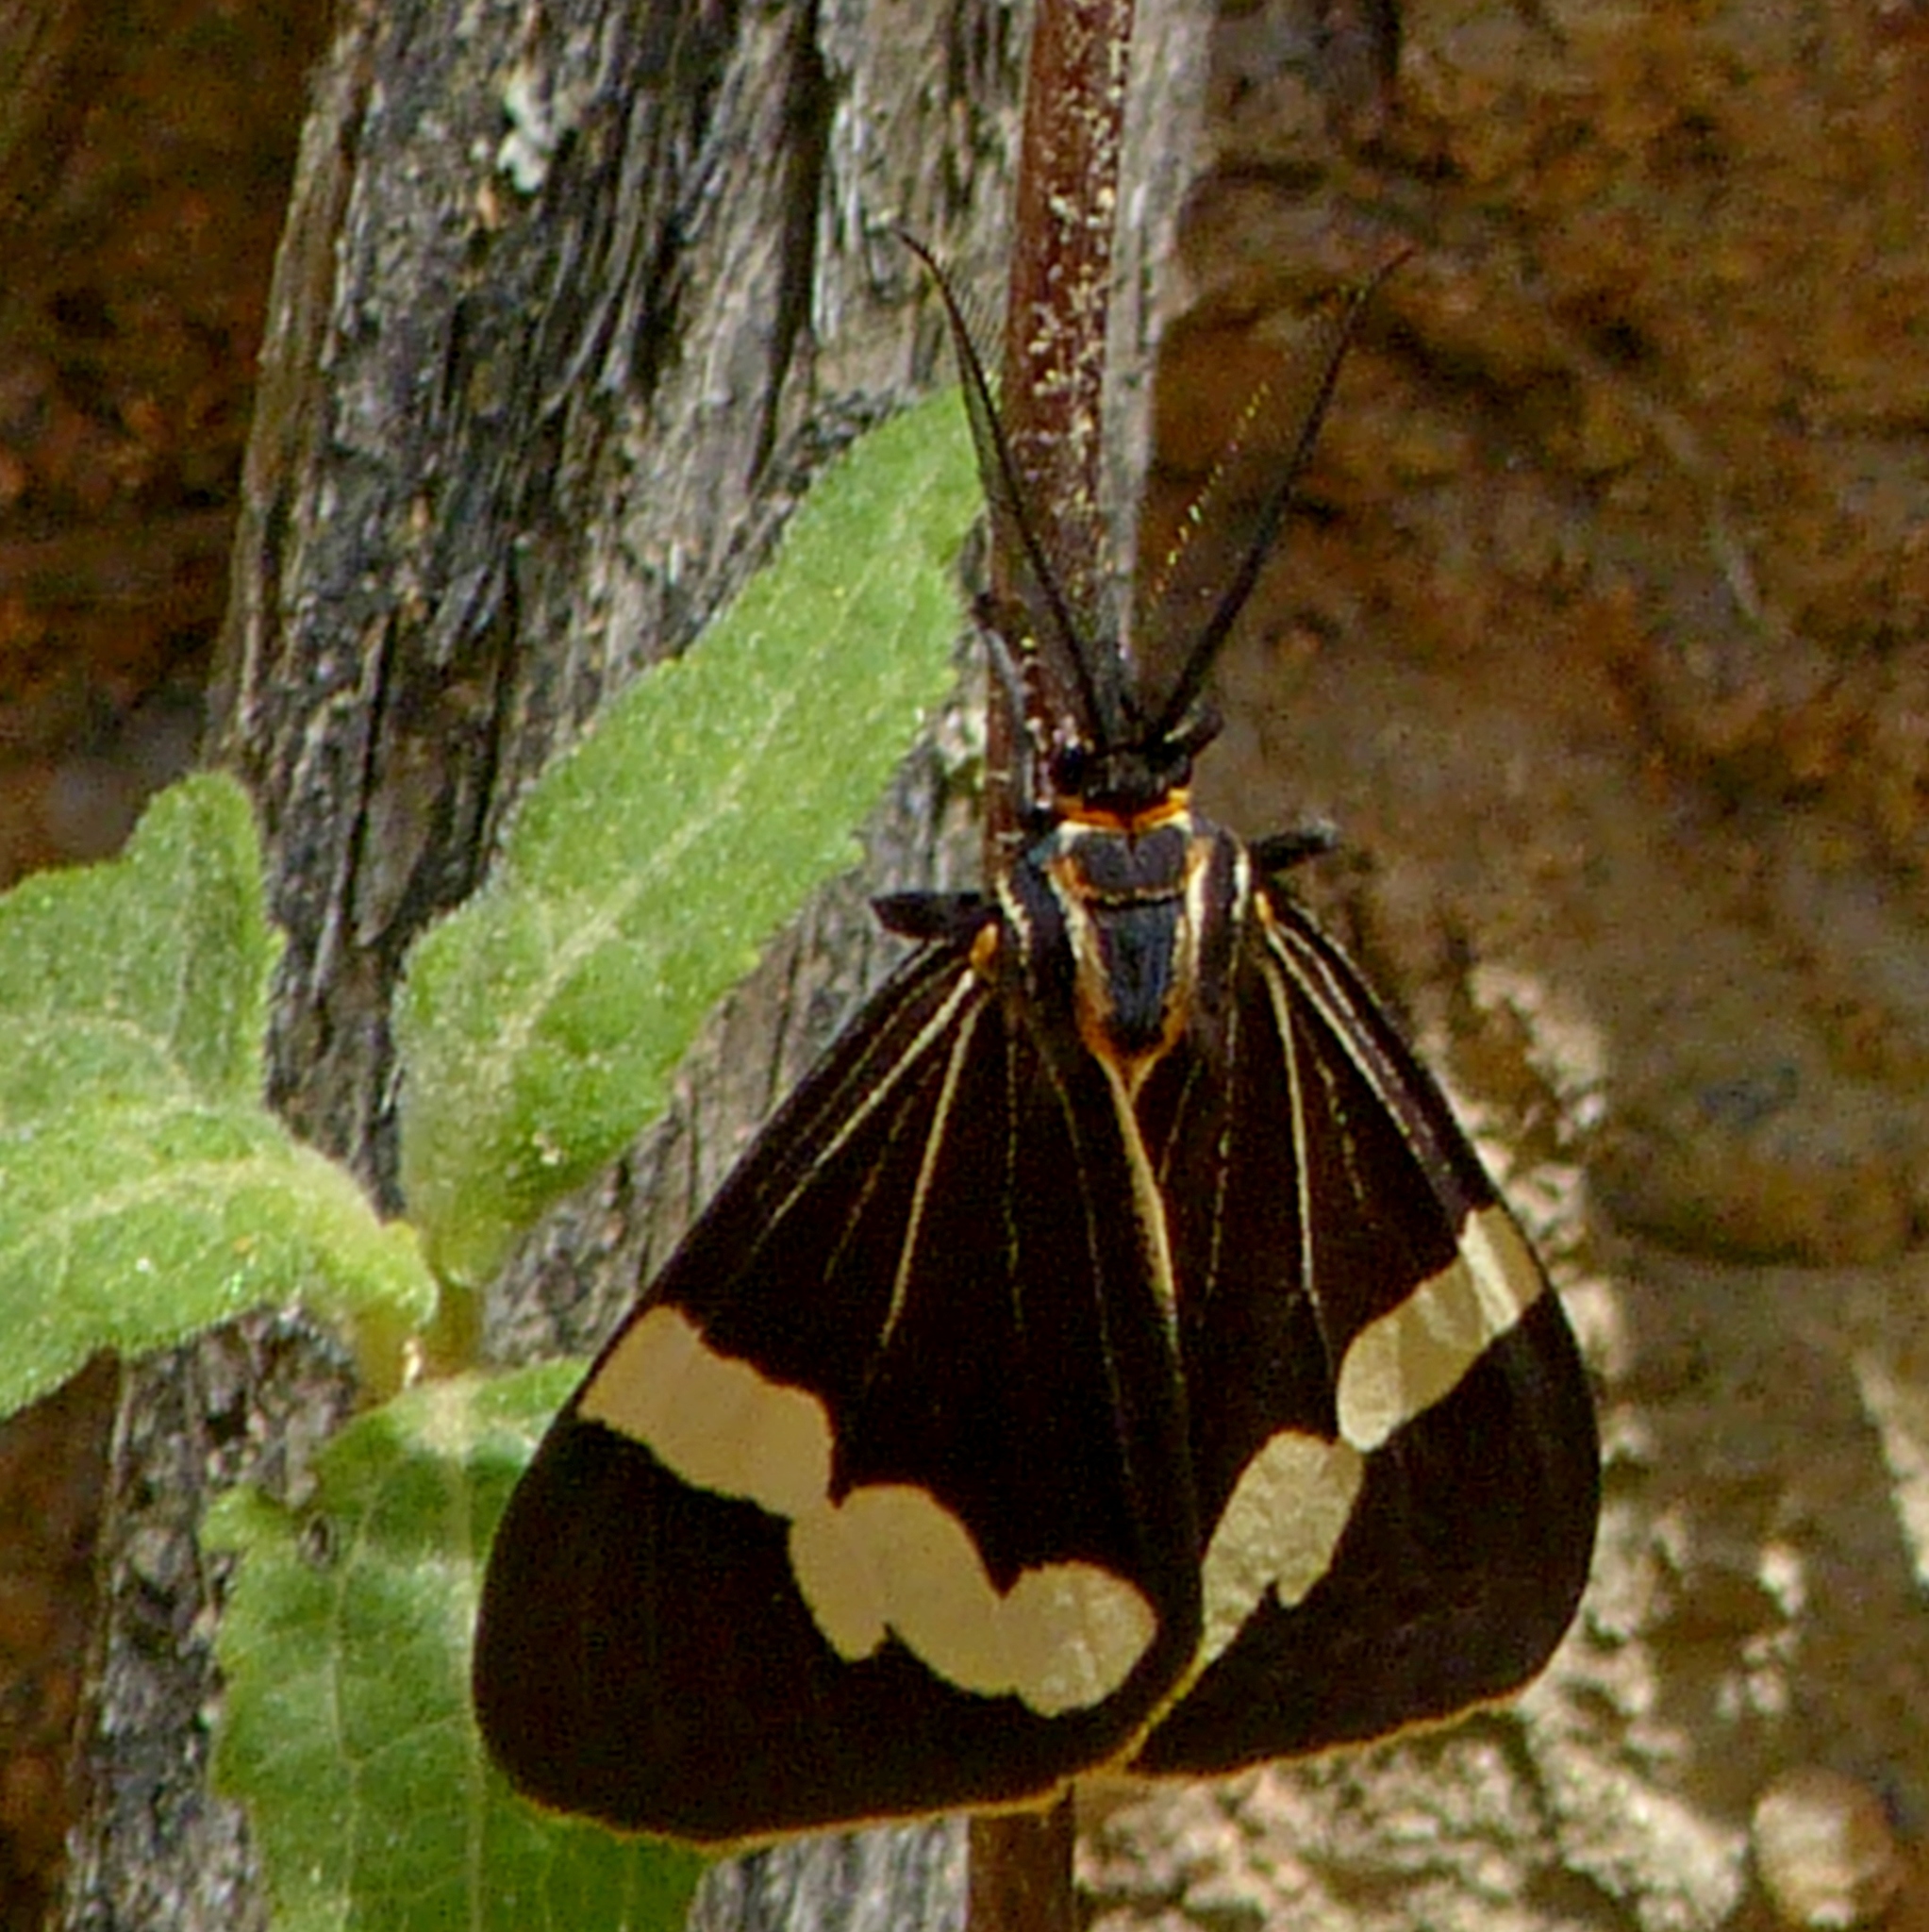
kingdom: Animalia
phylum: Arthropoda
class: Insecta
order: Lepidoptera
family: Erebidae
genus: Nyctemera
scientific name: Nyctemera amicus
